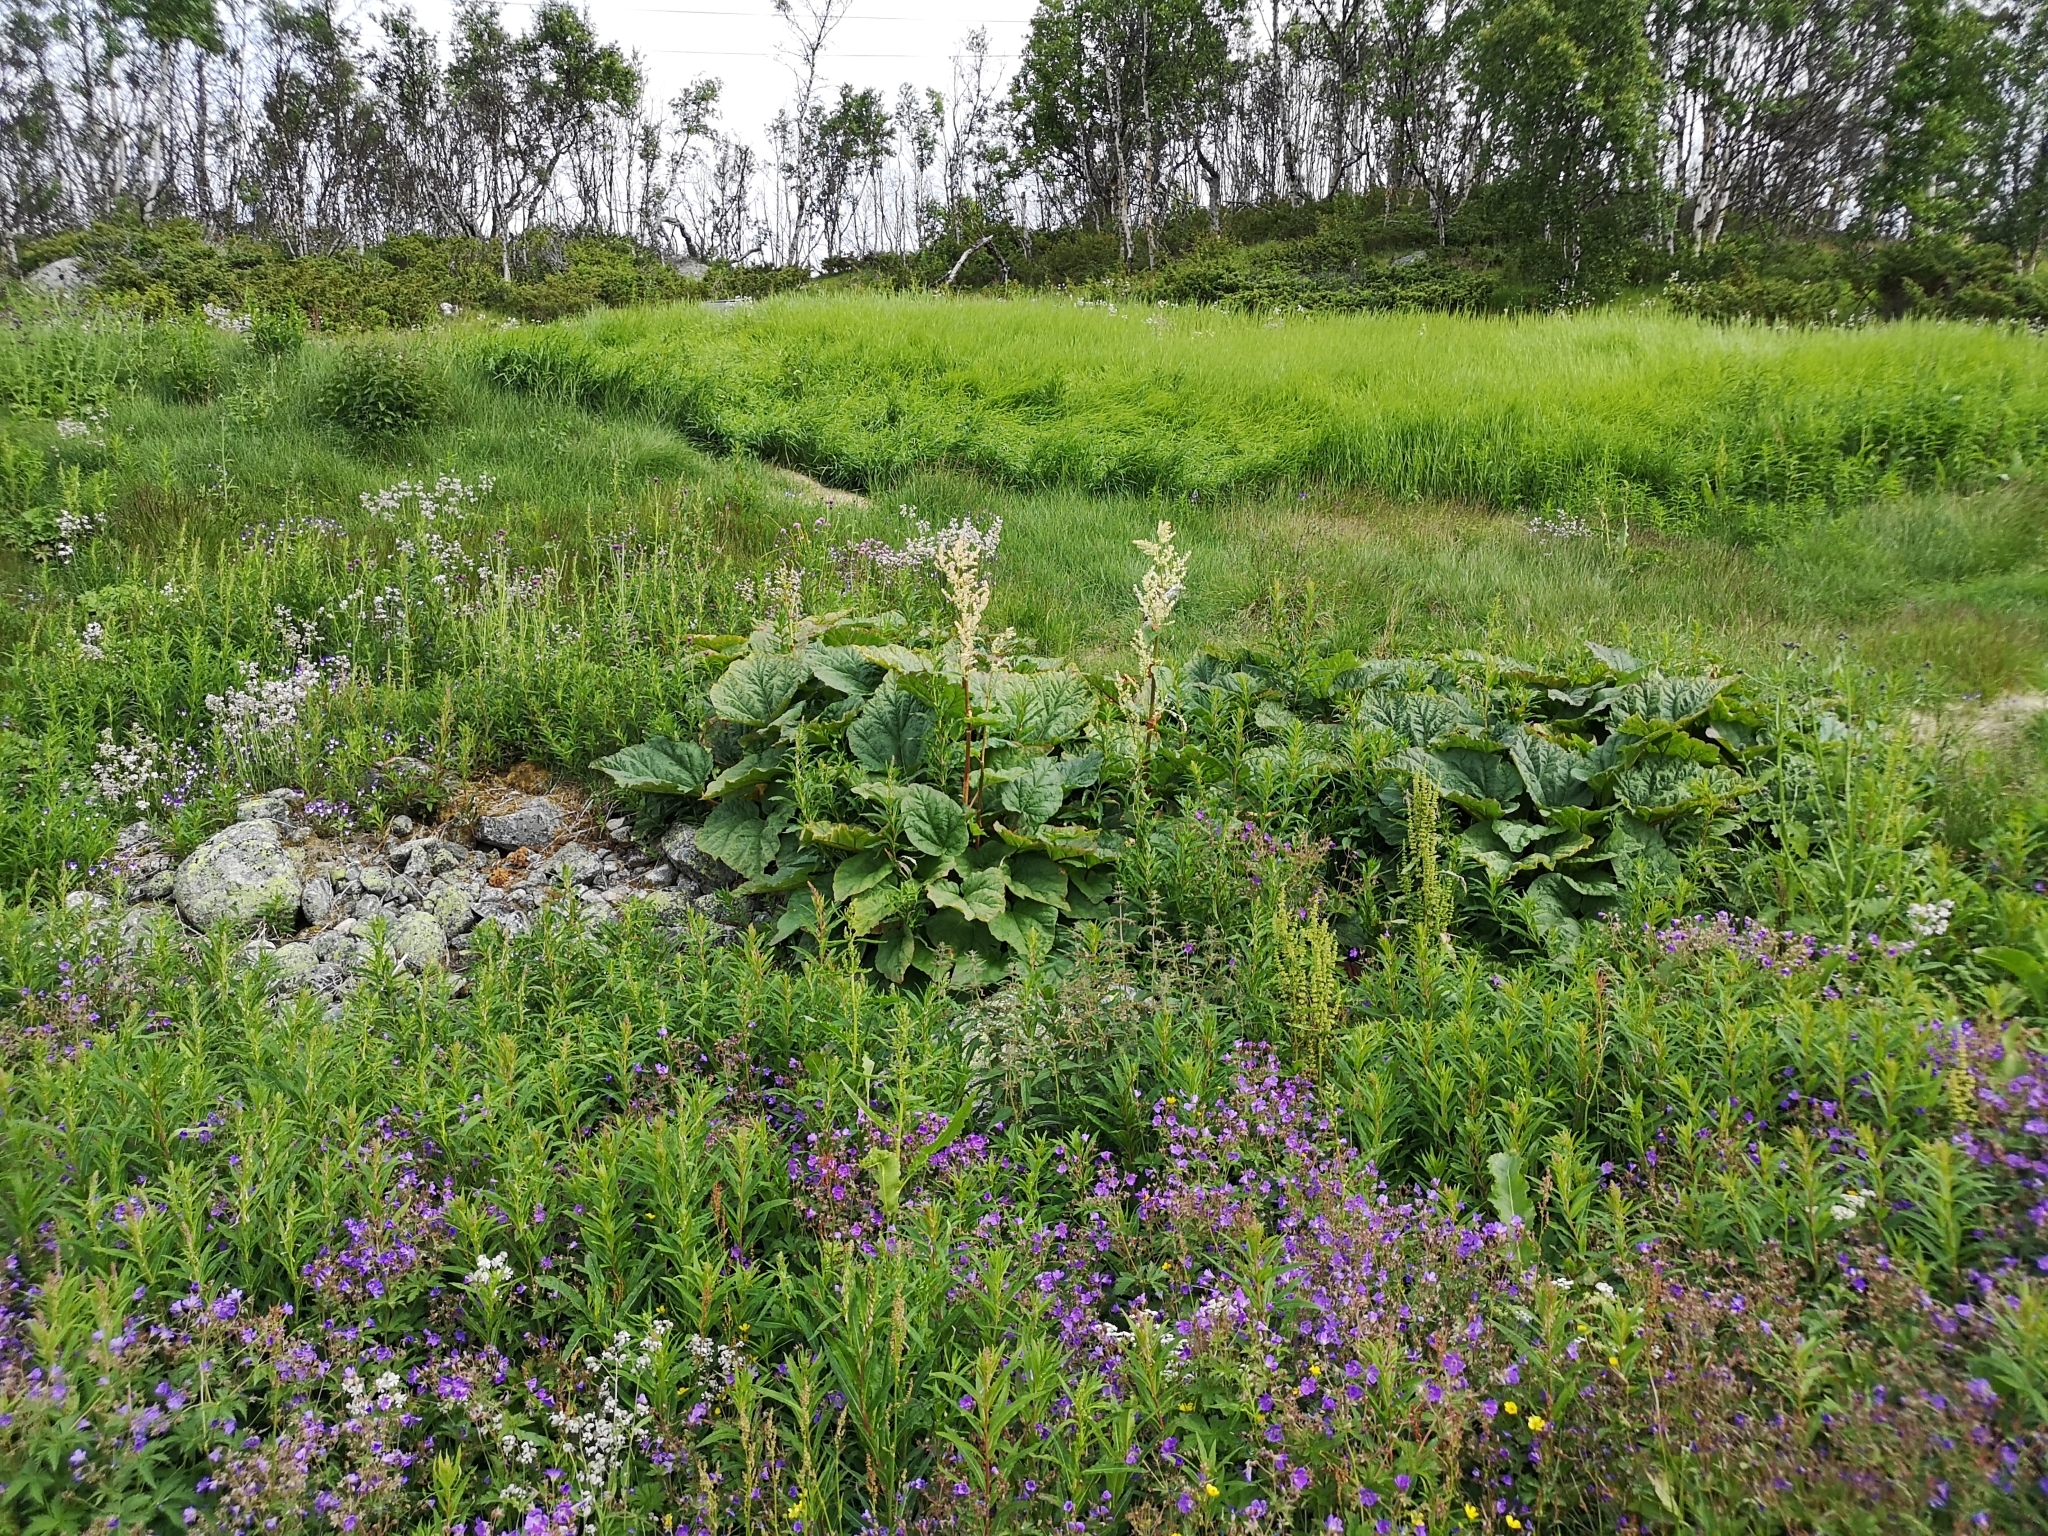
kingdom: Plantae
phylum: Tracheophyta
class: Magnoliopsida
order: Caryophyllales
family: Polygonaceae
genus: Rheum
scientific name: Rheum rhabarbarum
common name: Garden rhubarb
